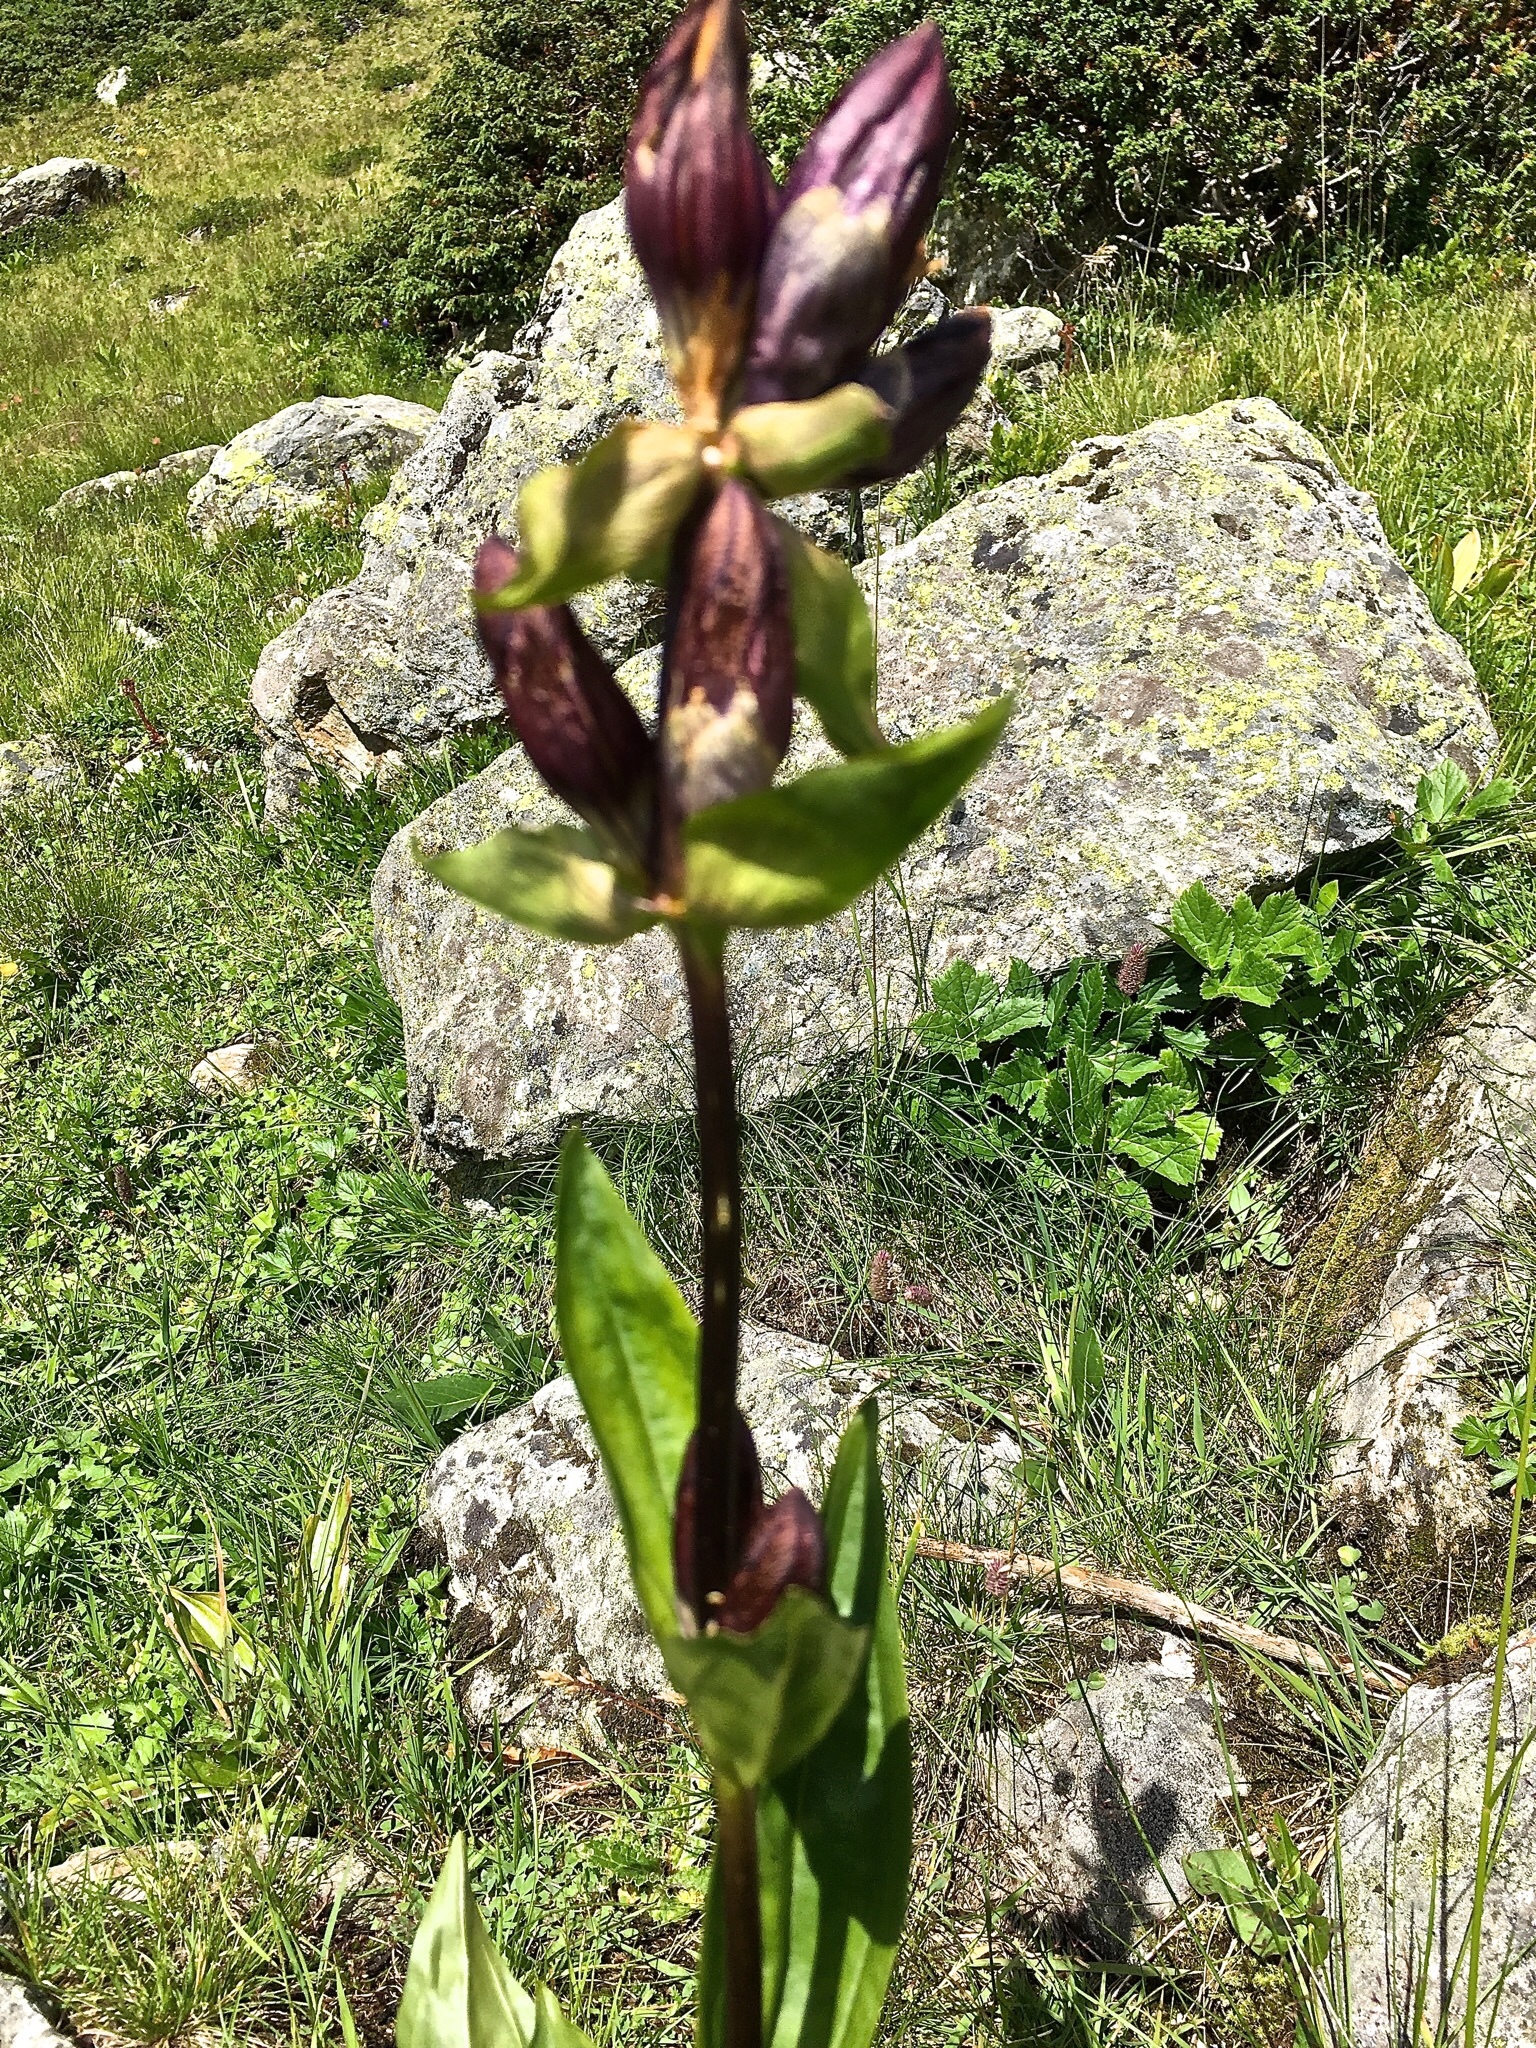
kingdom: Plantae
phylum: Tracheophyta
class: Magnoliopsida
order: Gentianales
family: Gentianaceae
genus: Gentiana
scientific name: Gentiana purpurea
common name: Purple gentian
